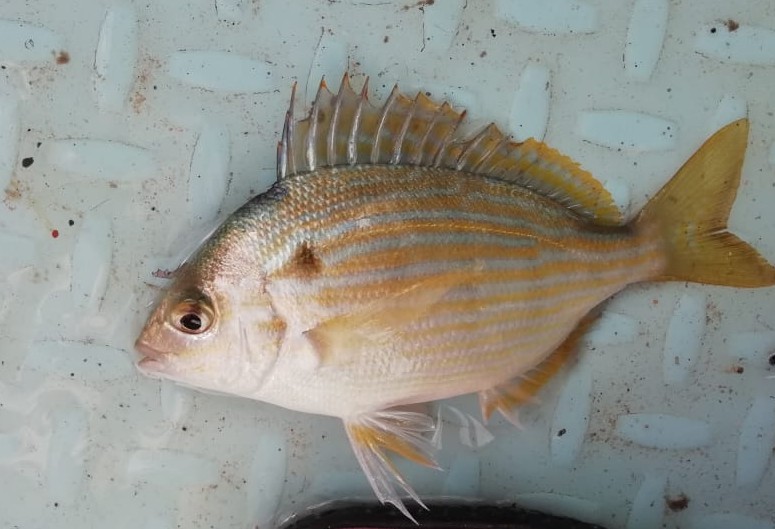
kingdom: Animalia
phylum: Chordata
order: Perciformes
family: Sparidae
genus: Lagodon
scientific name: Lagodon rhomboides
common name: Pinfish
